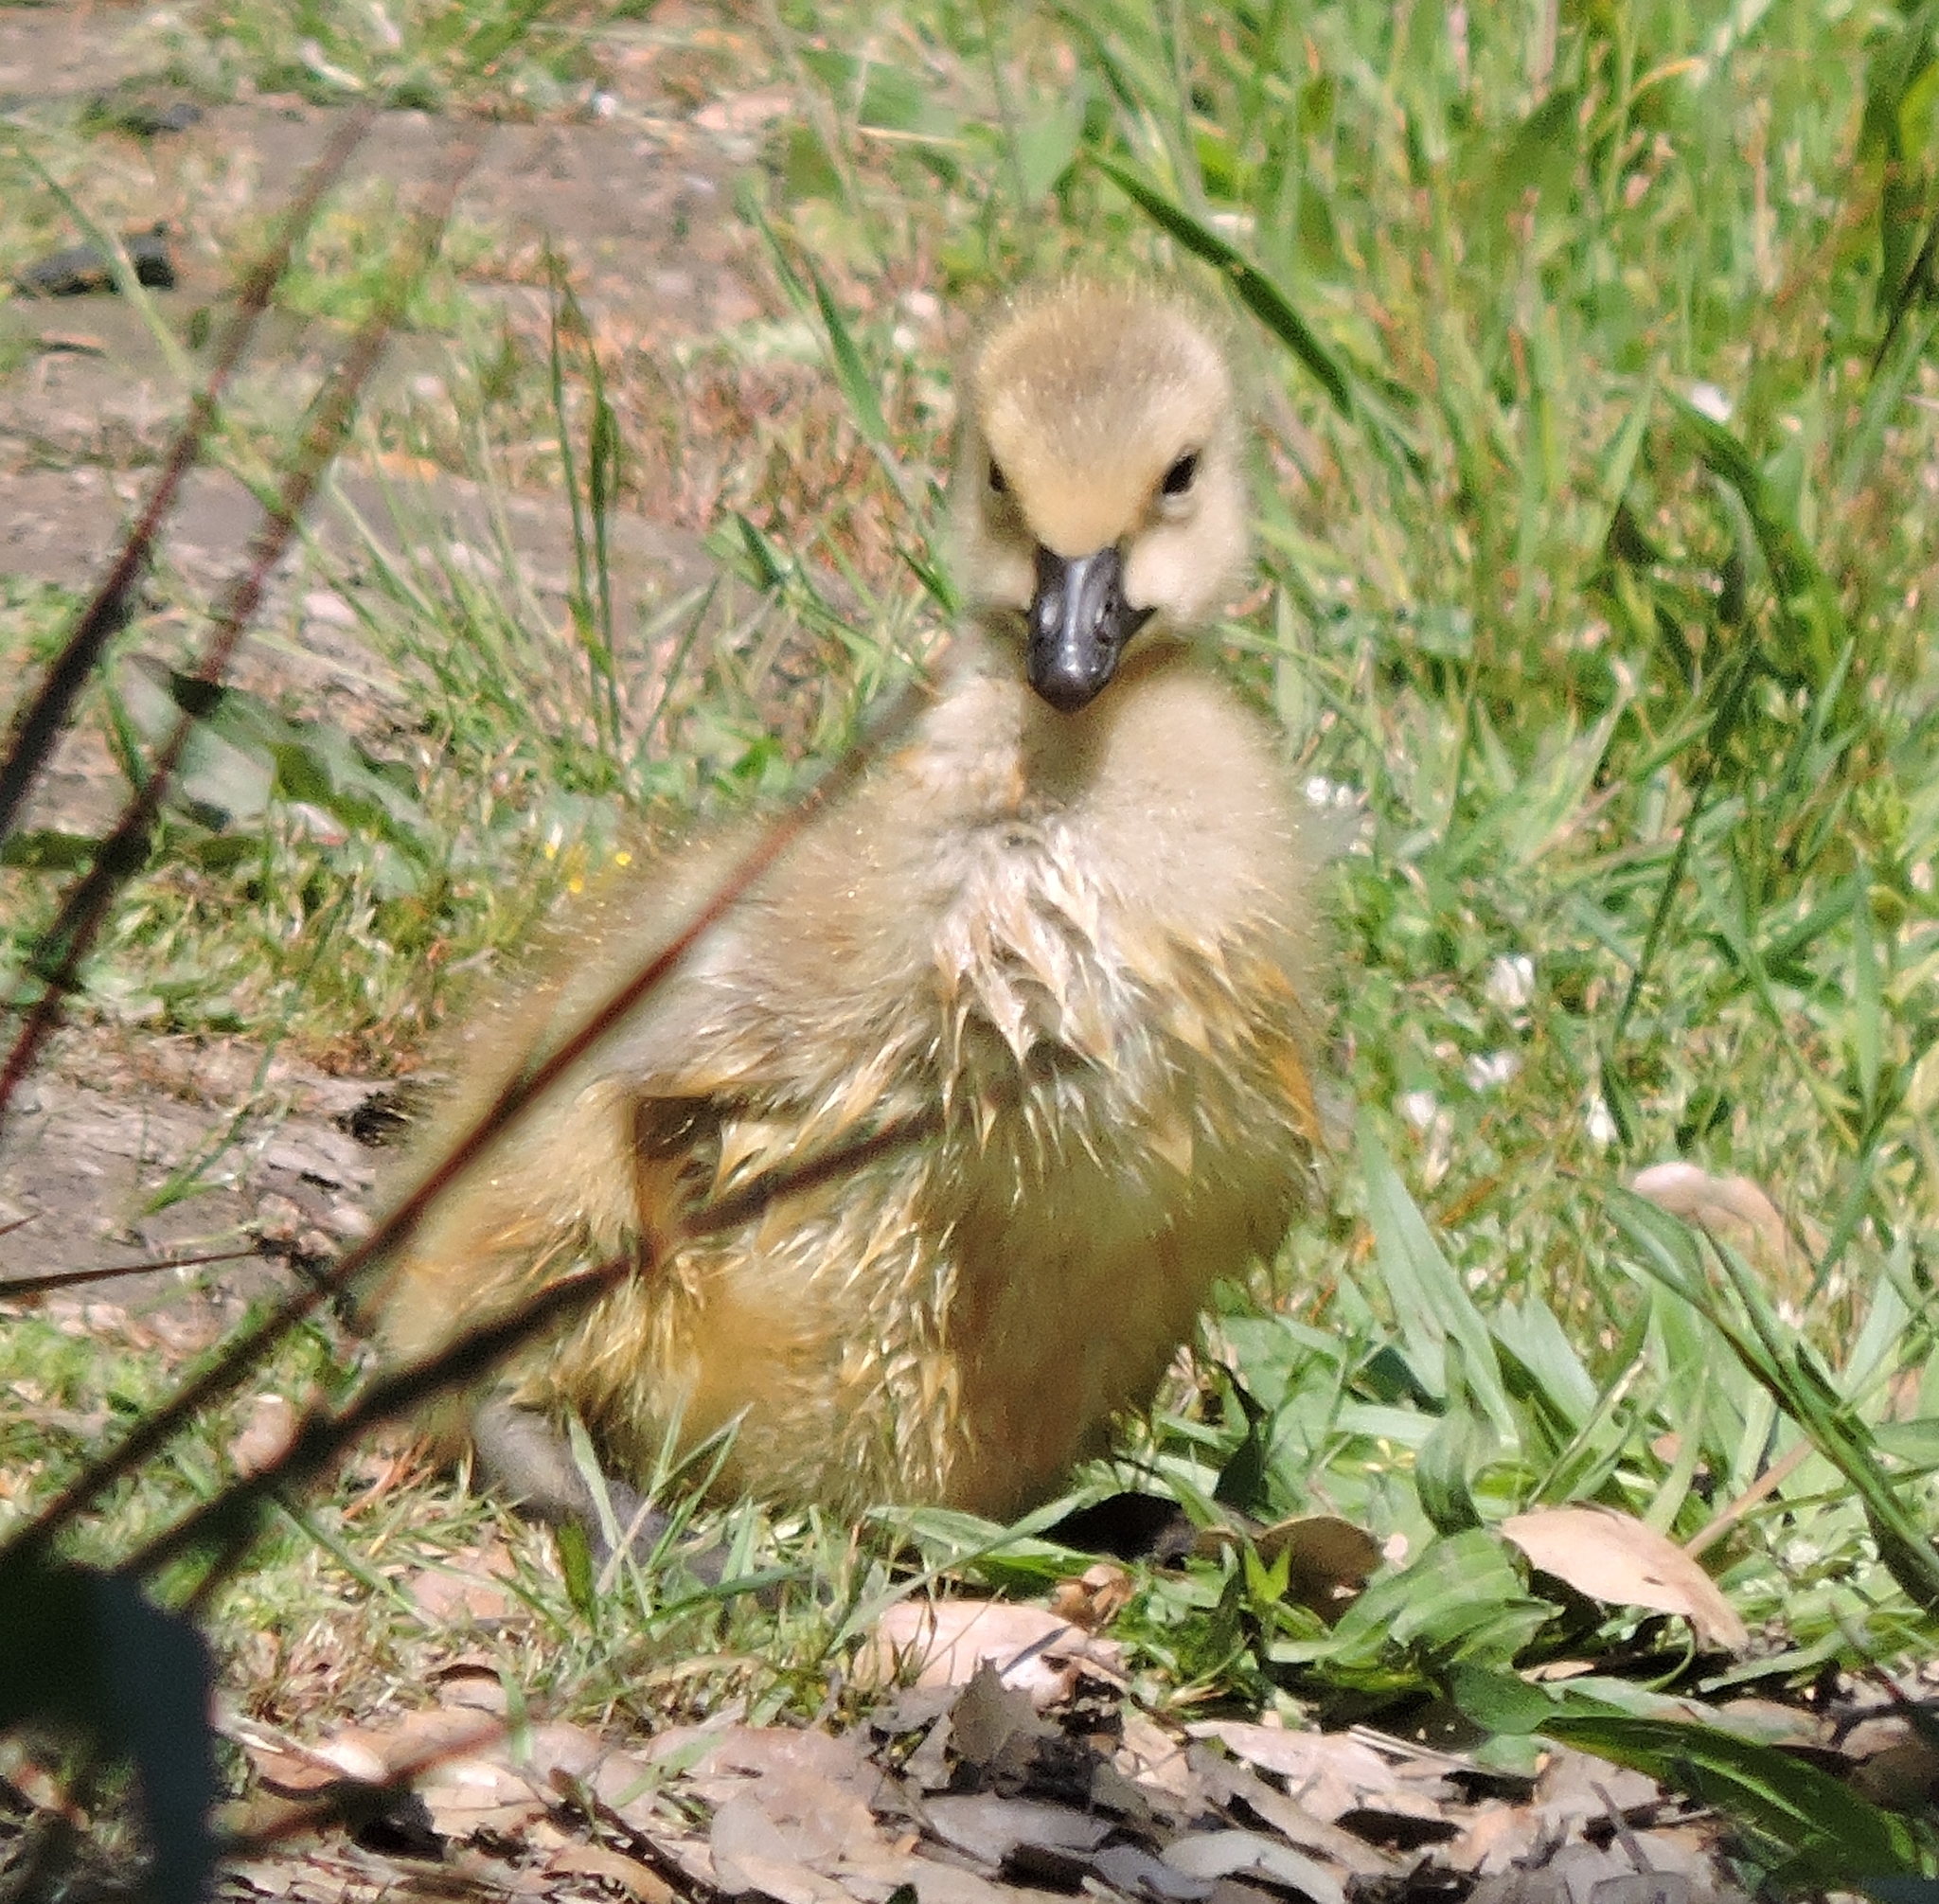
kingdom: Animalia
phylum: Chordata
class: Aves
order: Anseriformes
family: Anatidae
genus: Branta
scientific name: Branta canadensis
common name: Canada goose
